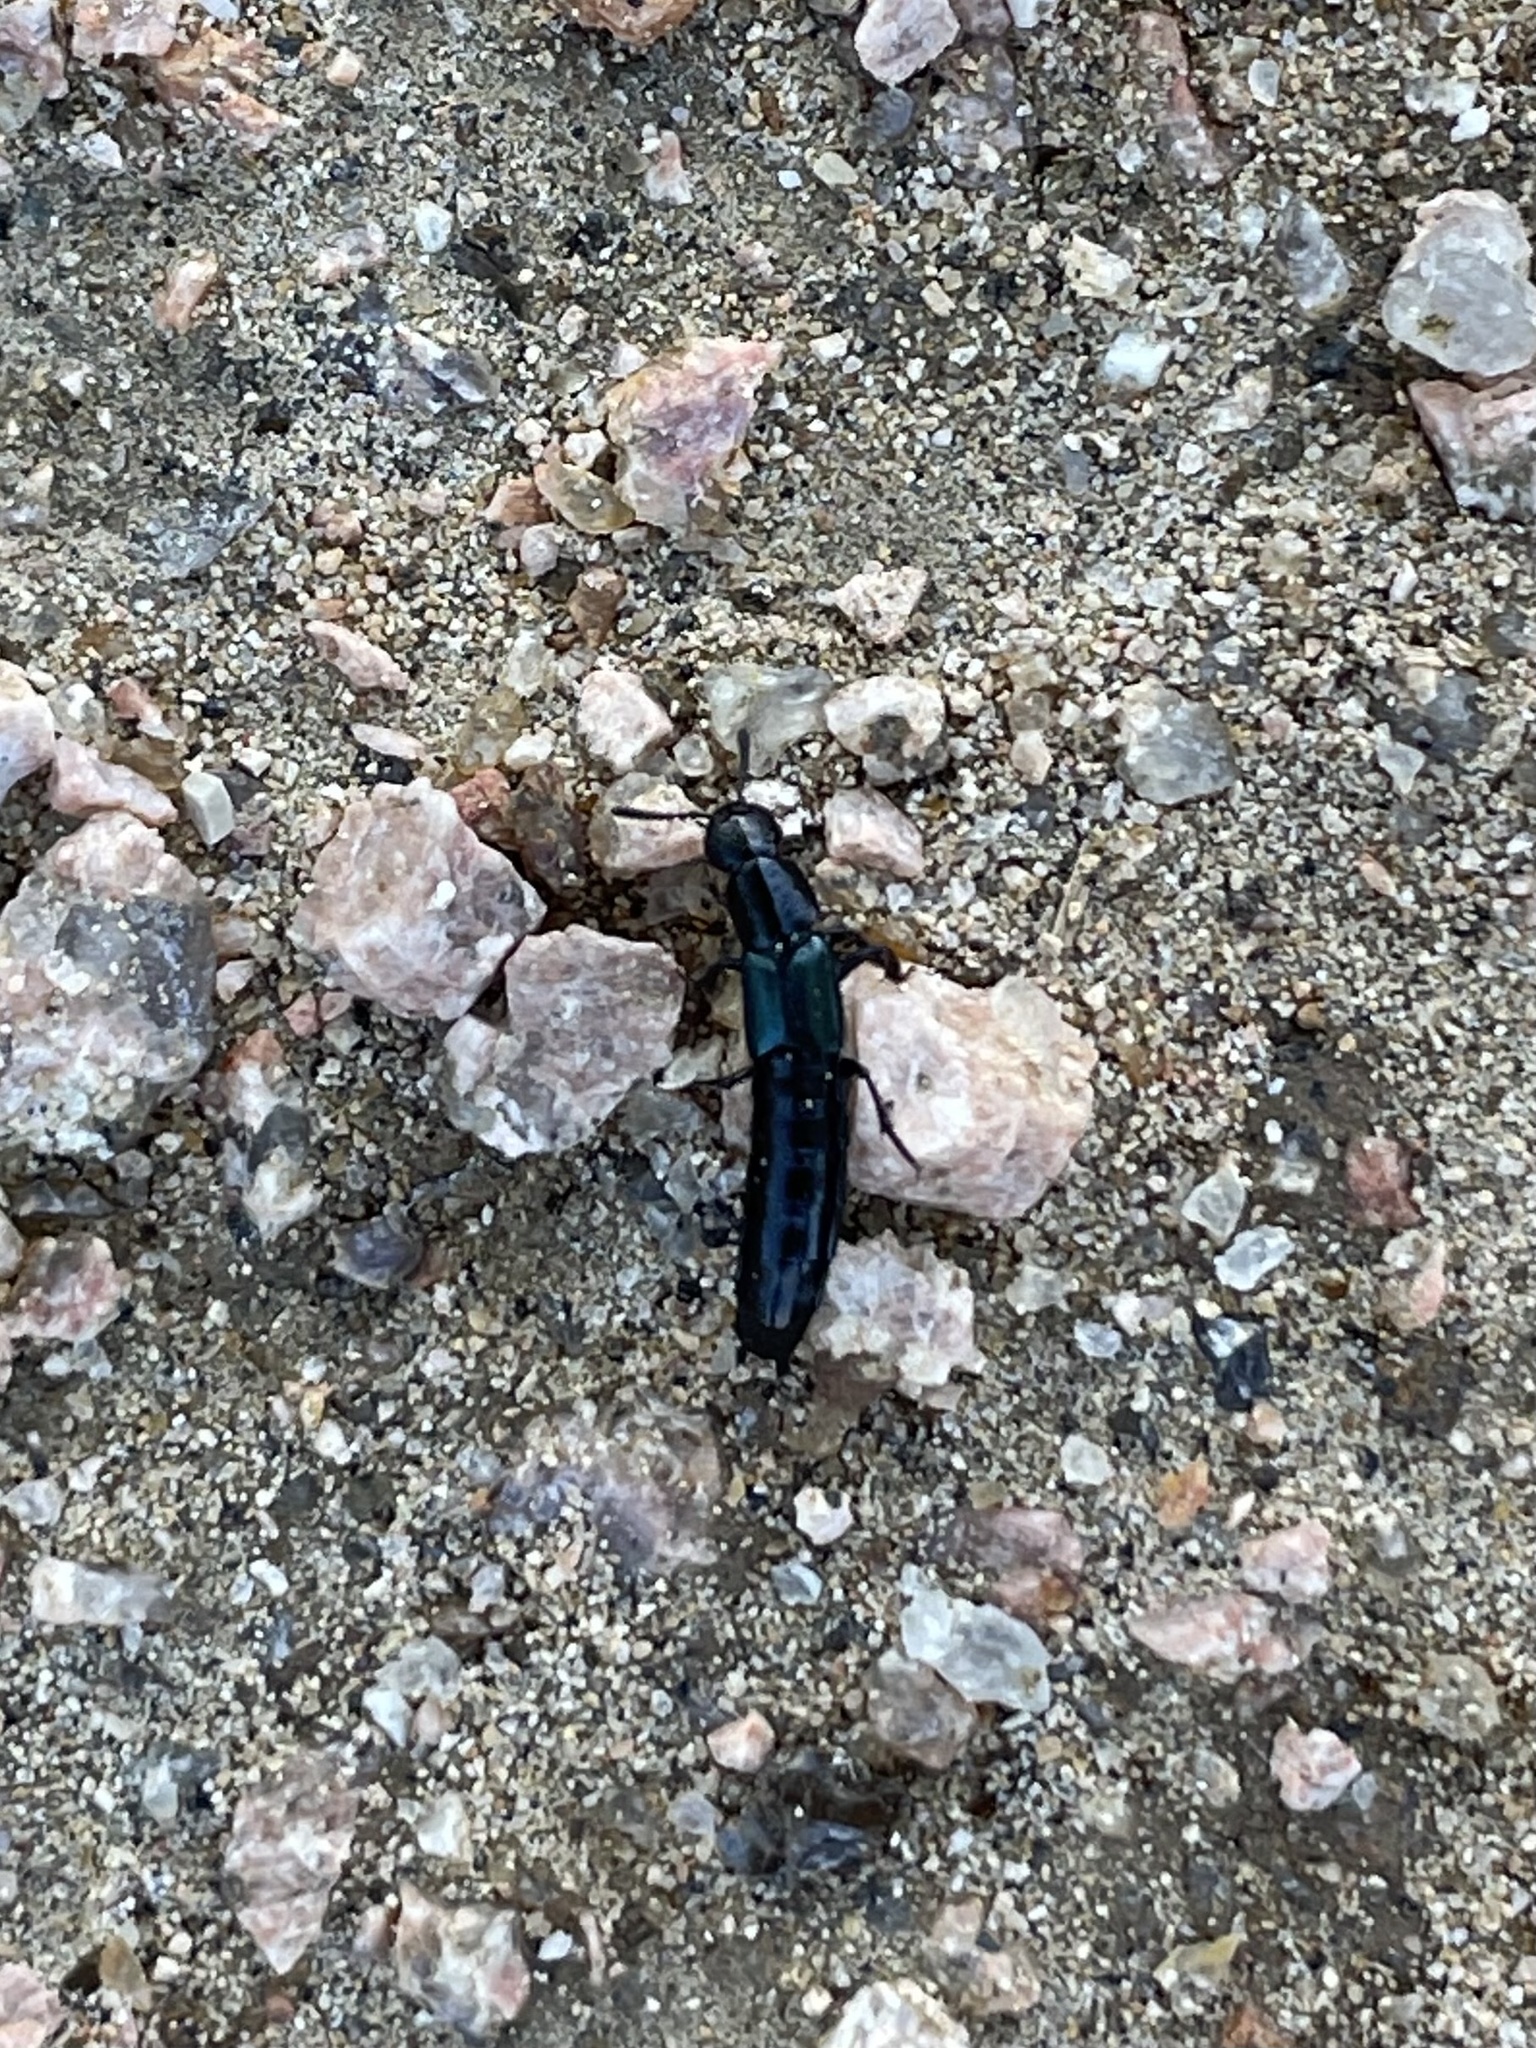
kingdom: Animalia
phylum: Arthropoda
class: Insecta
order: Coleoptera
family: Staphylinidae
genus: Flohria
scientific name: Flohria subcoerulea
